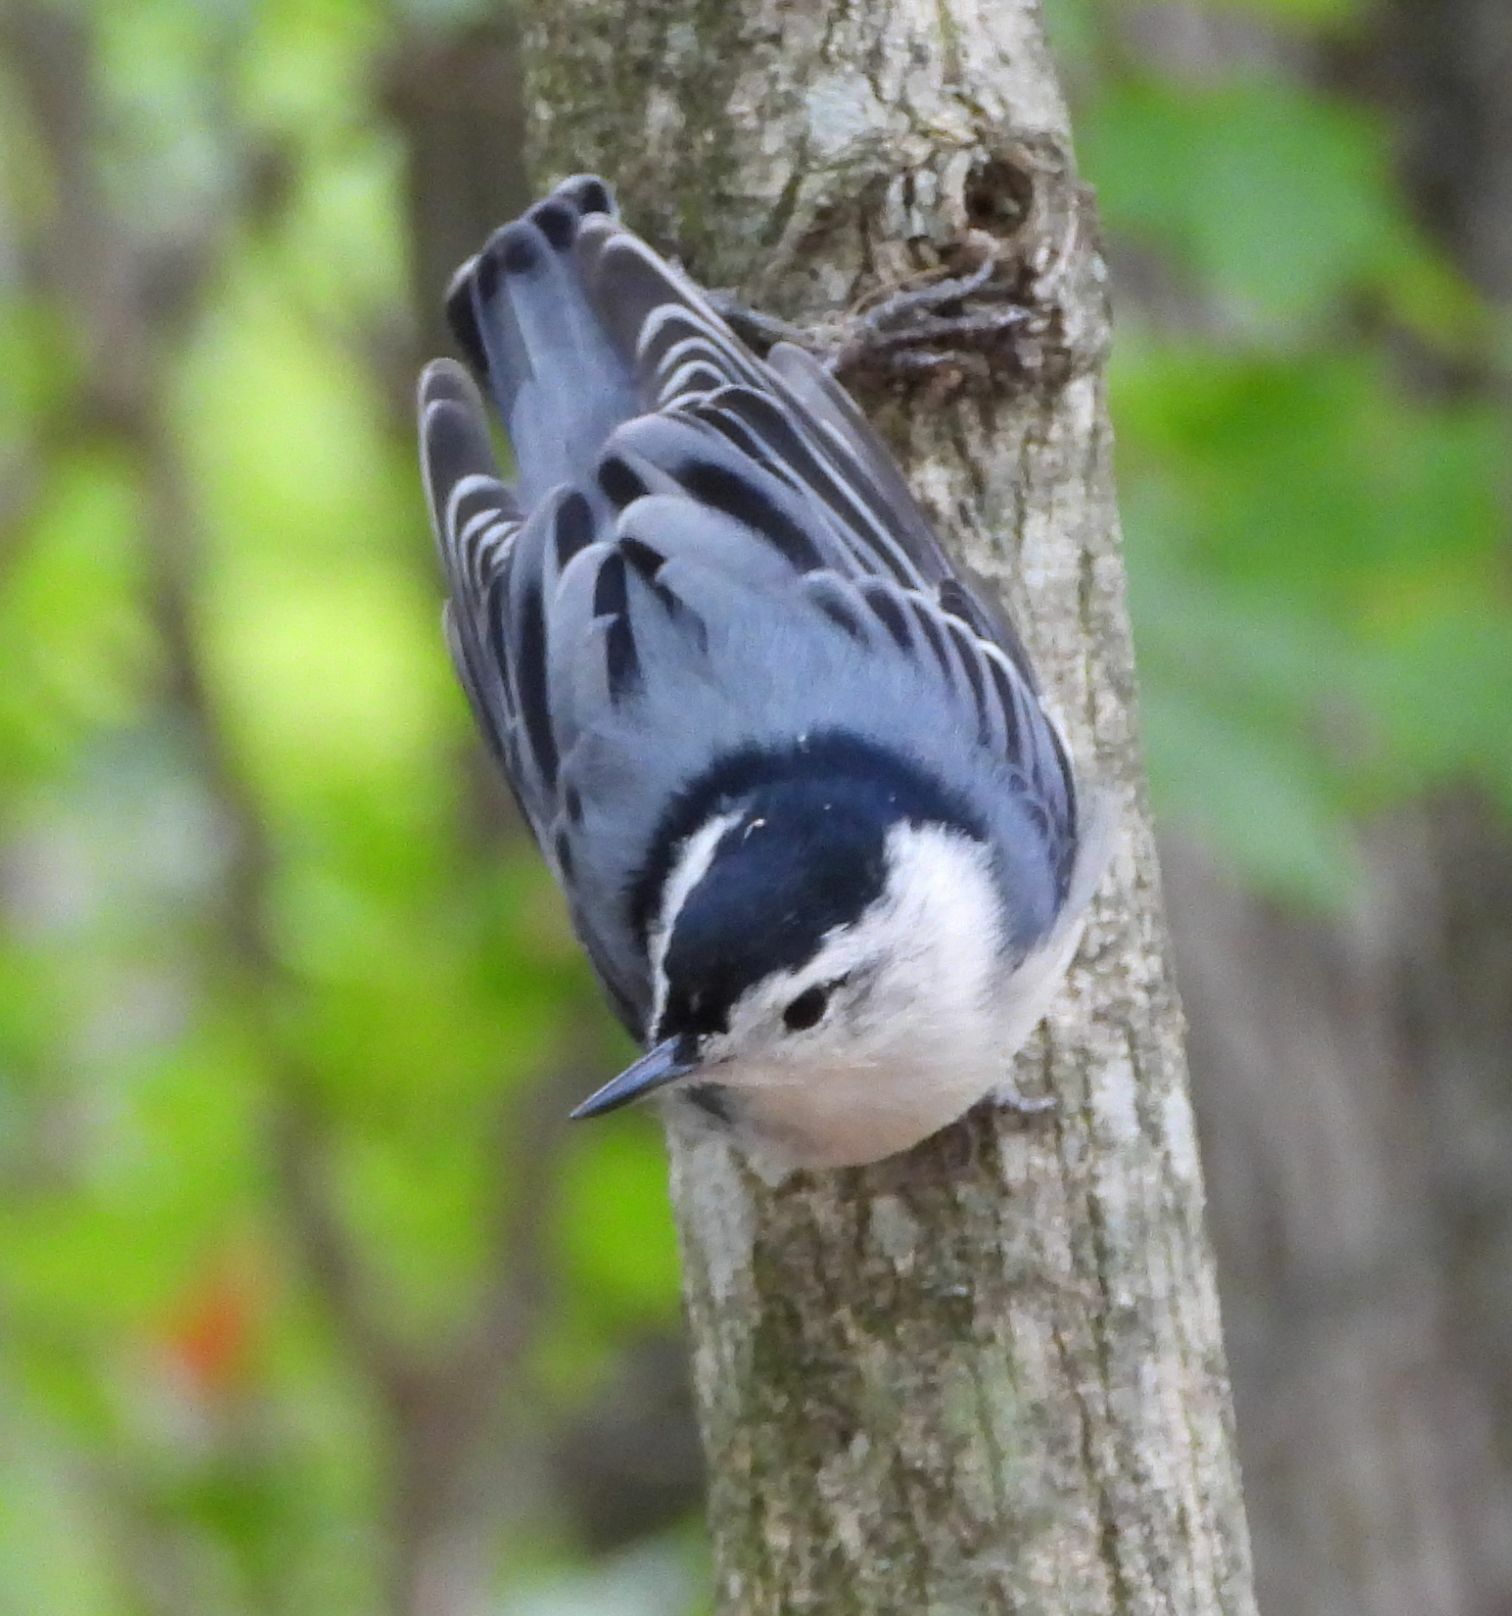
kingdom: Animalia
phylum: Chordata
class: Aves
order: Passeriformes
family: Sittidae
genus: Sitta
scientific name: Sitta carolinensis
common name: White-breasted nuthatch
